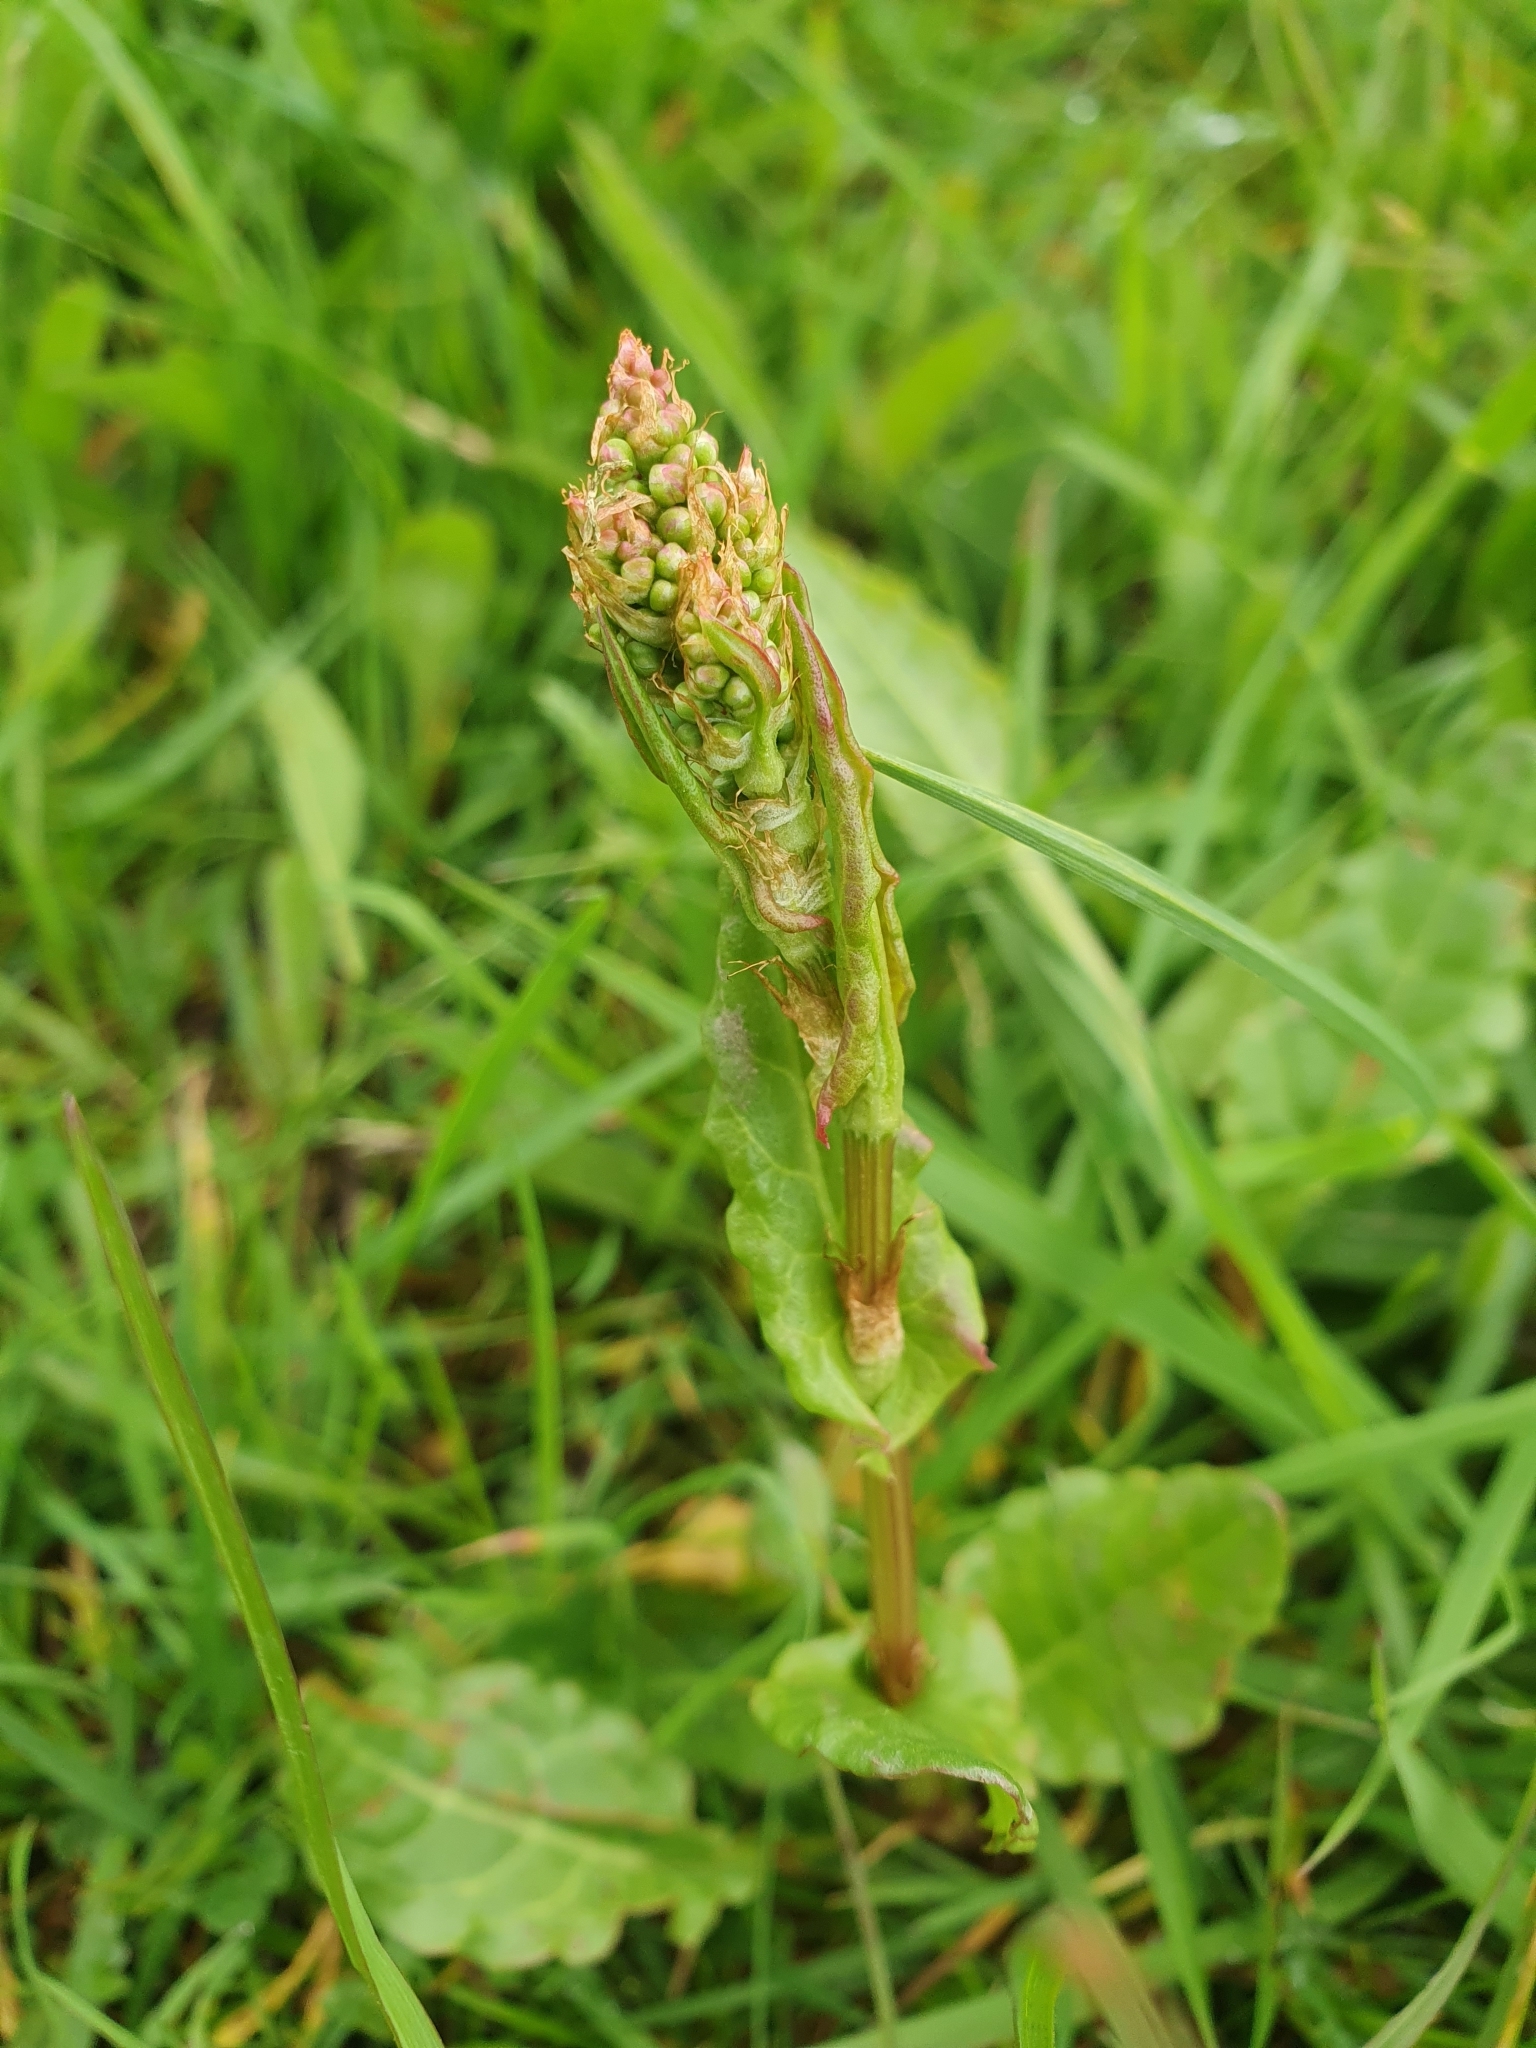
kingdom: Plantae
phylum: Tracheophyta
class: Magnoliopsida
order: Caryophyllales
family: Polygonaceae
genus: Rumex
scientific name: Rumex acetosa
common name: Garden sorrel
